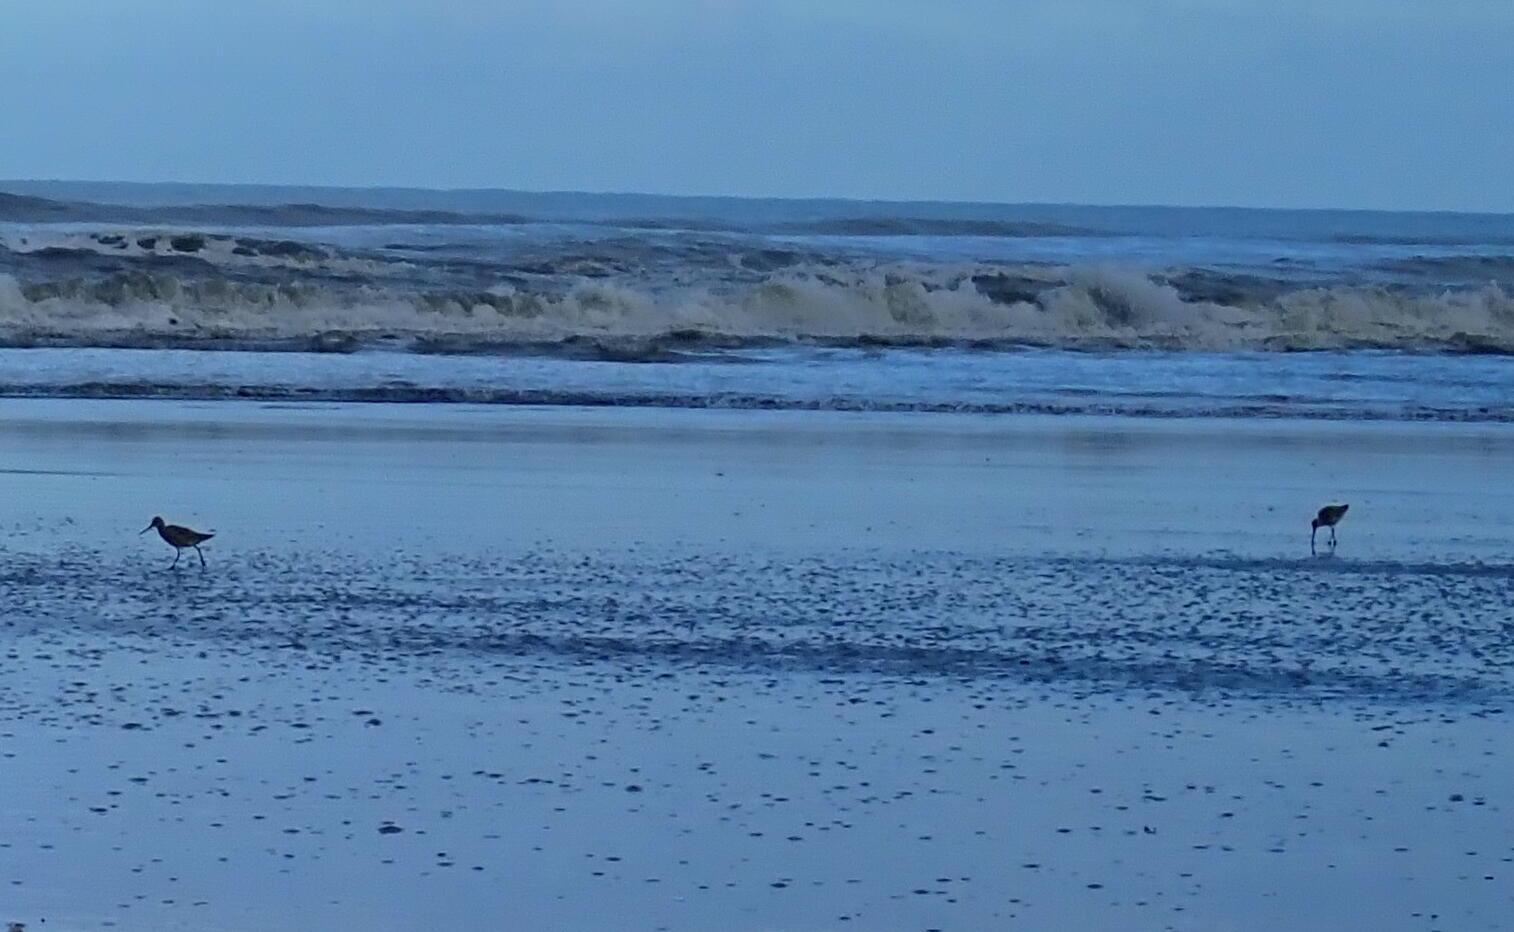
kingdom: Animalia
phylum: Chordata
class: Aves
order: Charadriiformes
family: Scolopacidae
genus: Limosa
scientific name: Limosa lapponica
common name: Bar-tailed godwit
